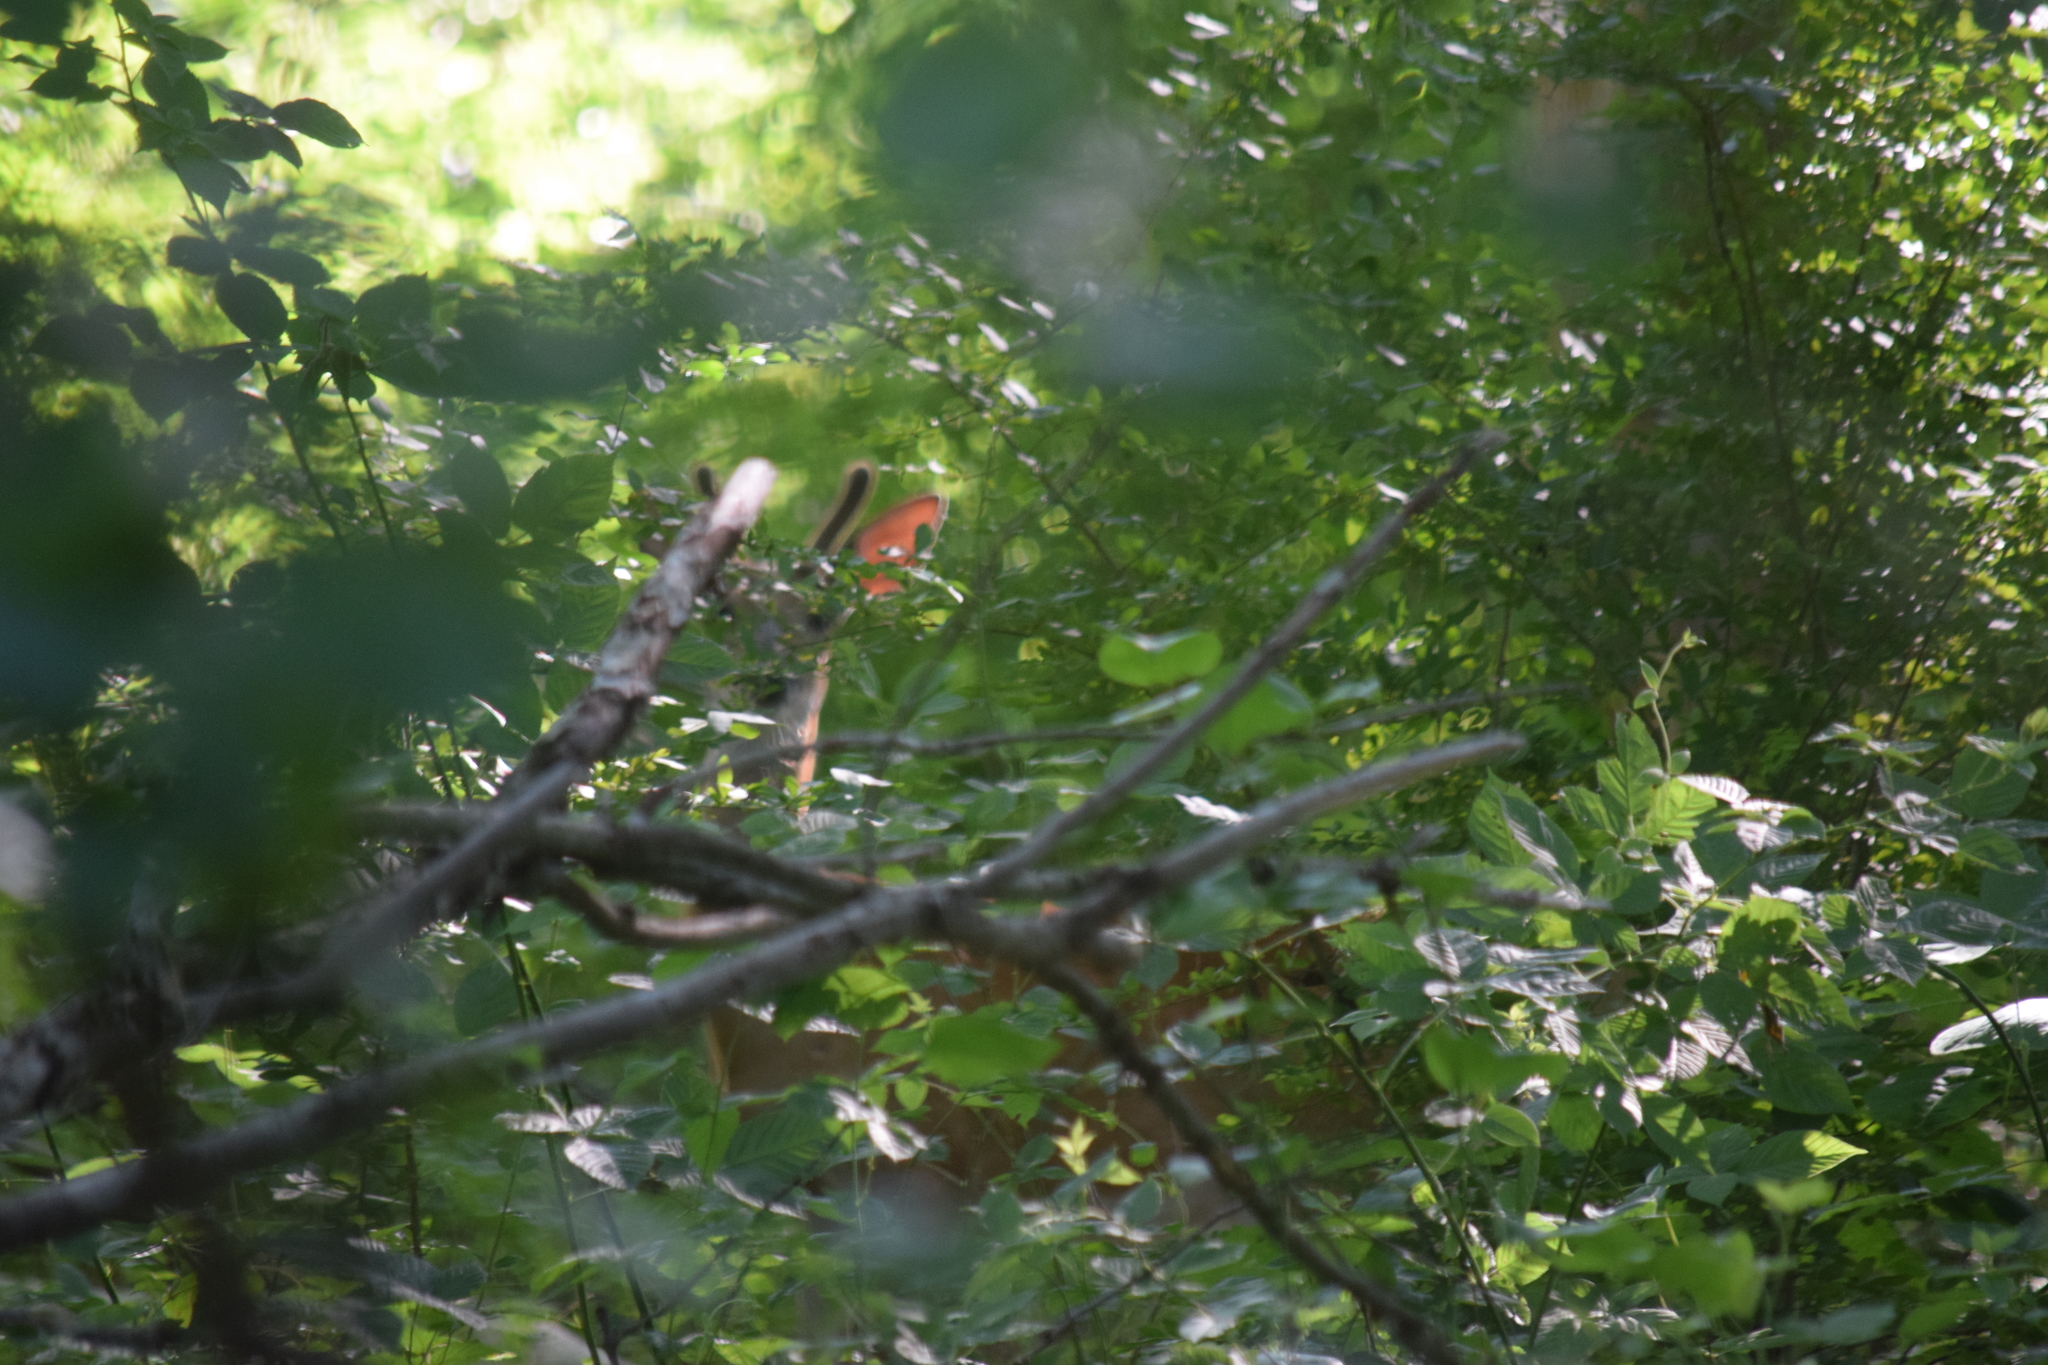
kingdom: Animalia
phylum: Chordata
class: Mammalia
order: Artiodactyla
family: Cervidae
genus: Odocoileus
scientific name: Odocoileus virginianus
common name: White-tailed deer
